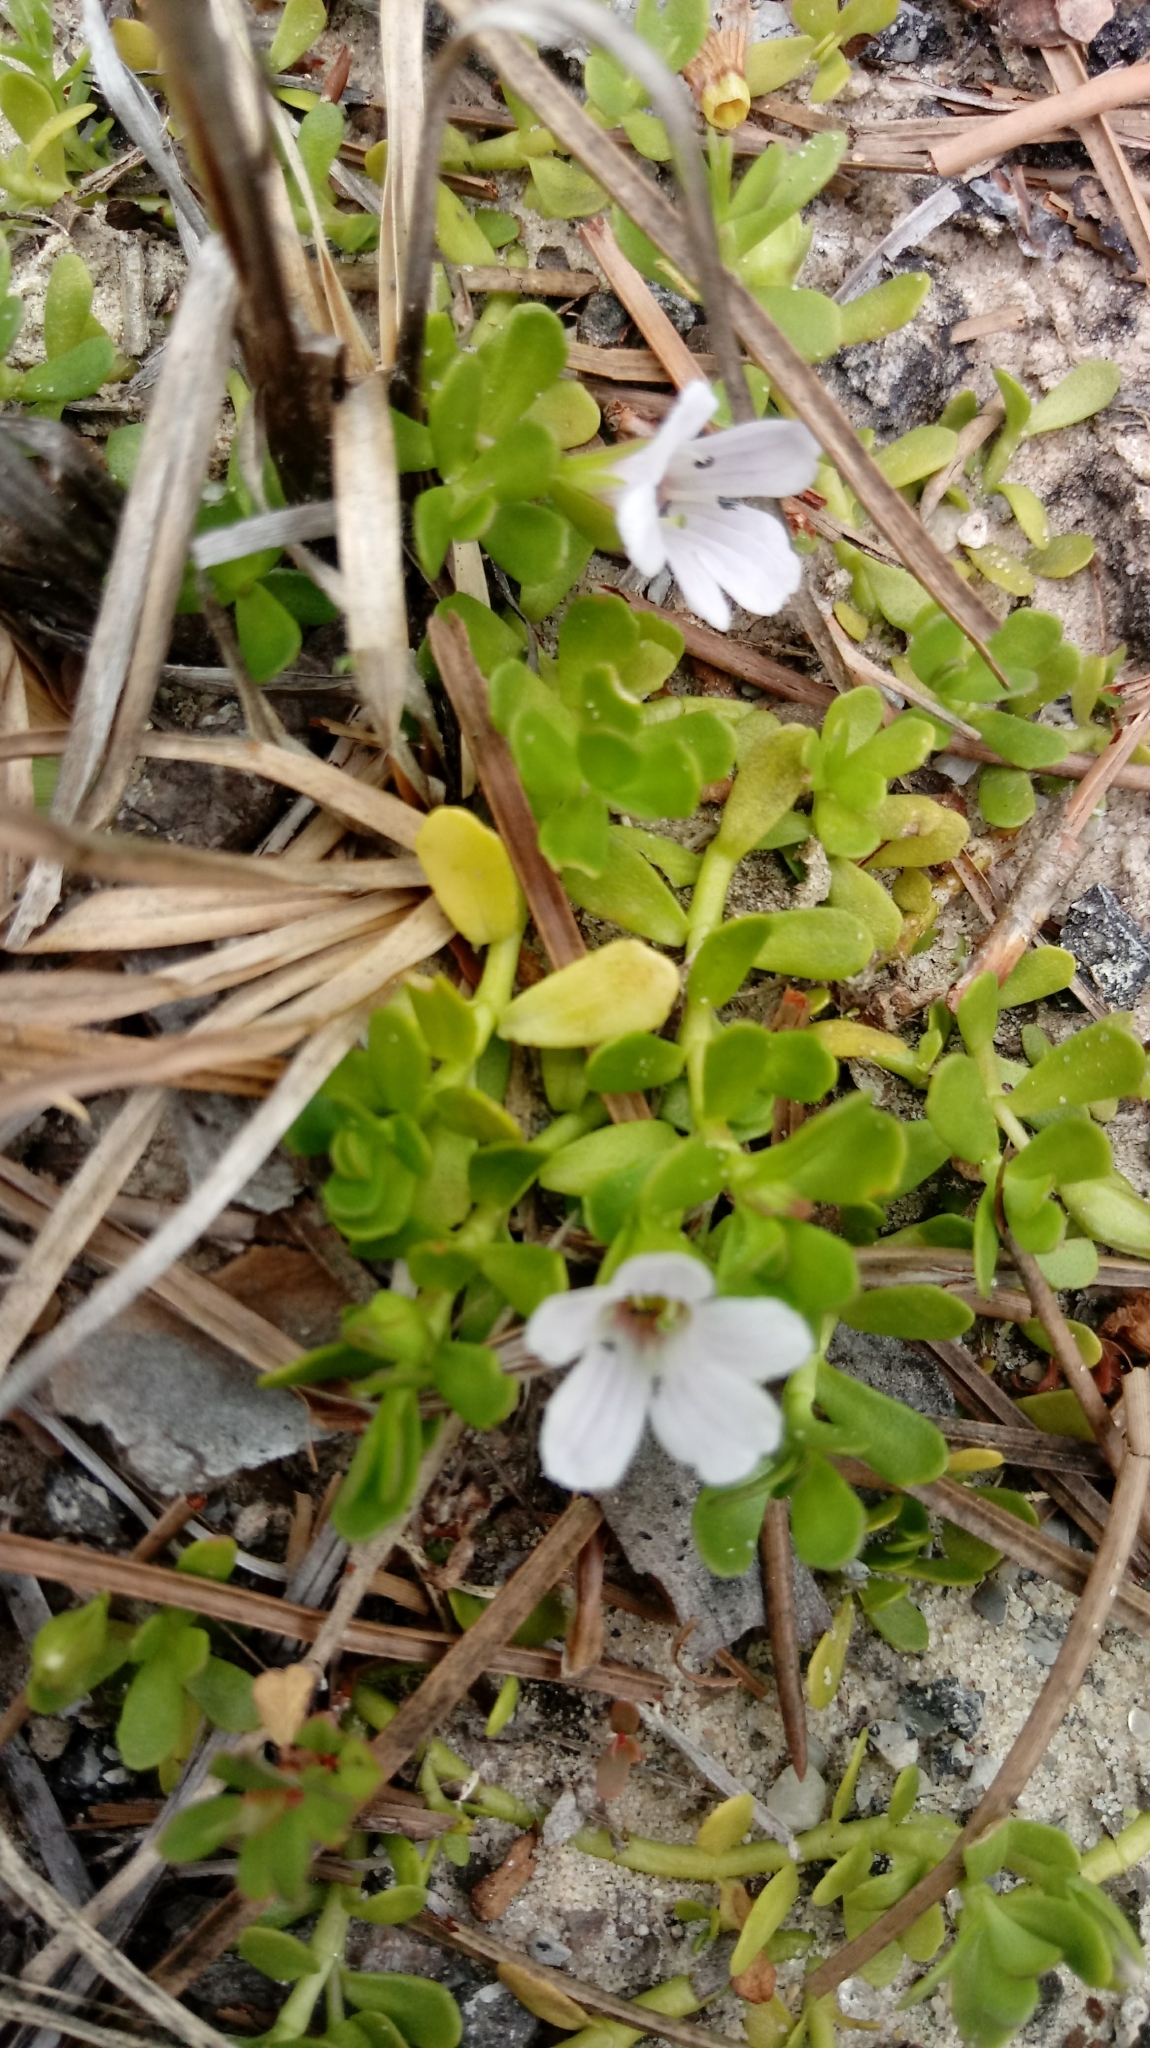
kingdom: Plantae
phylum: Tracheophyta
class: Magnoliopsida
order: Lamiales
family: Plantaginaceae
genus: Bacopa
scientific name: Bacopa monnieri
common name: Indian-pennywort
